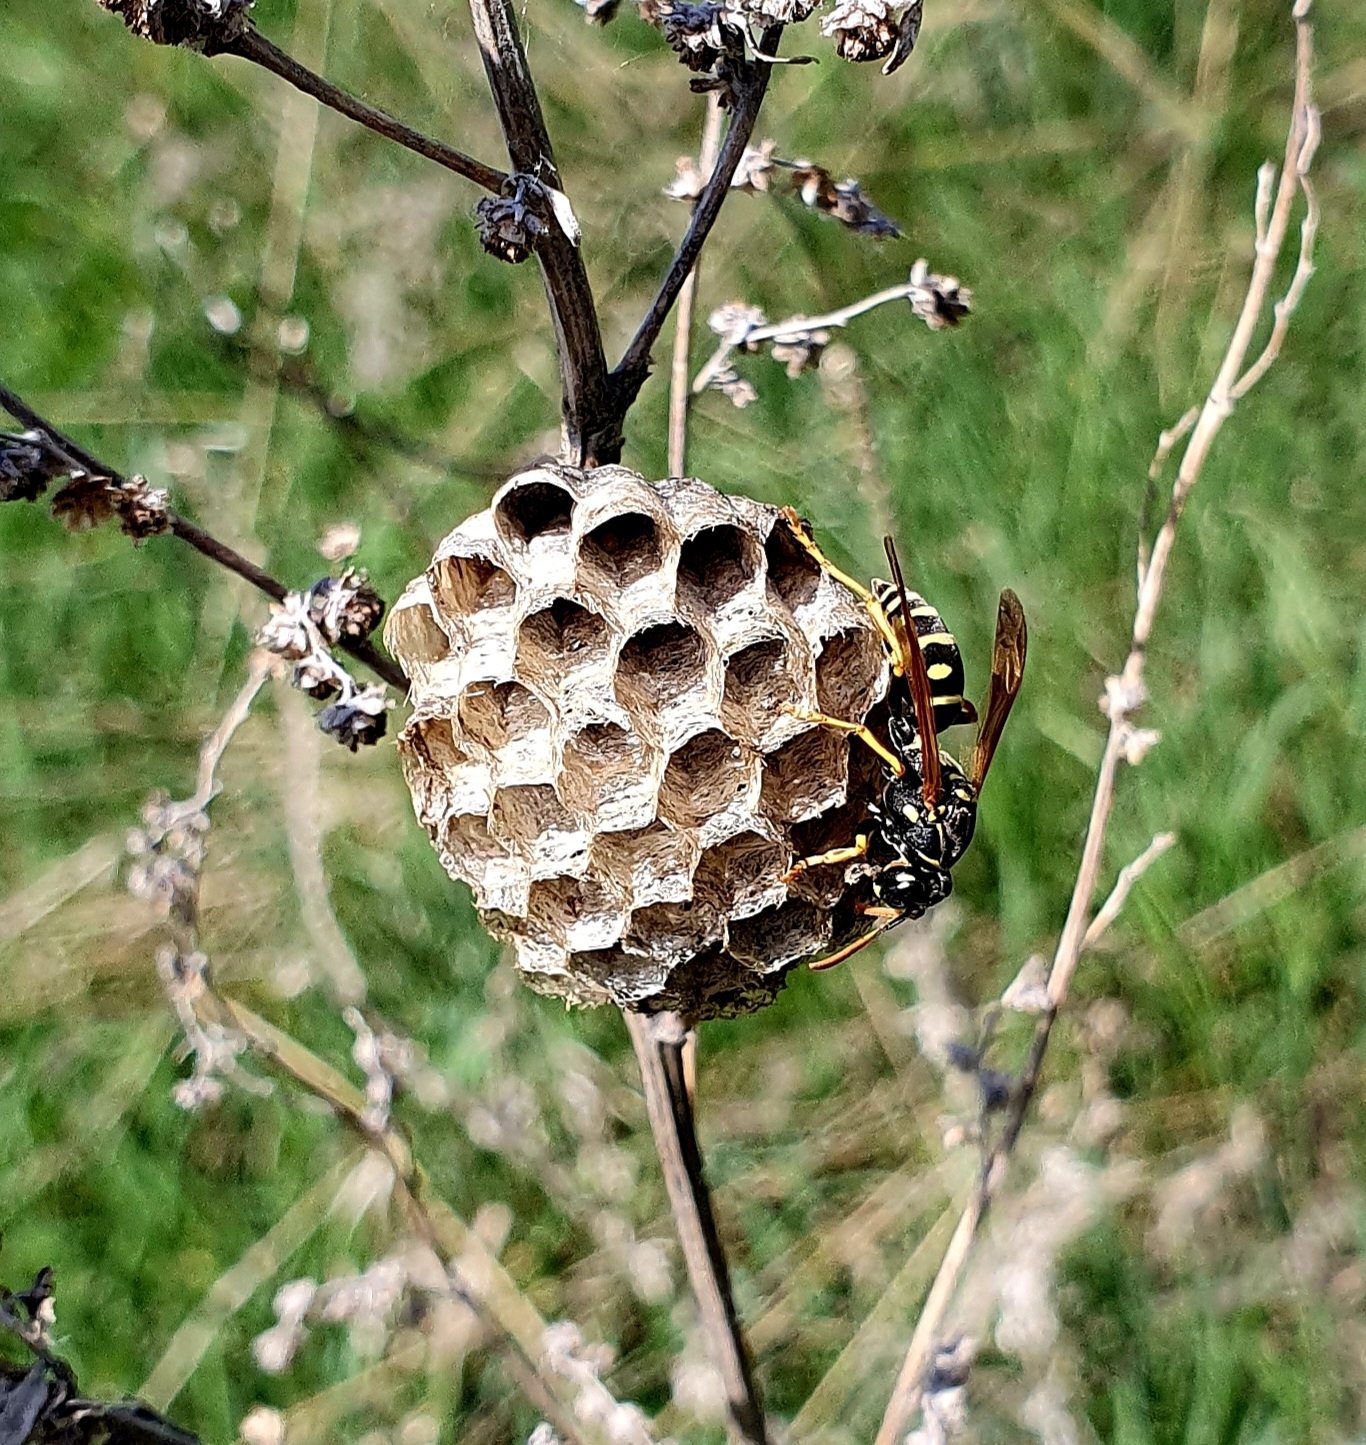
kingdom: Animalia
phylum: Arthropoda
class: Insecta
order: Hymenoptera
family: Eumenidae
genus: Polistes
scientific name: Polistes nimpha
